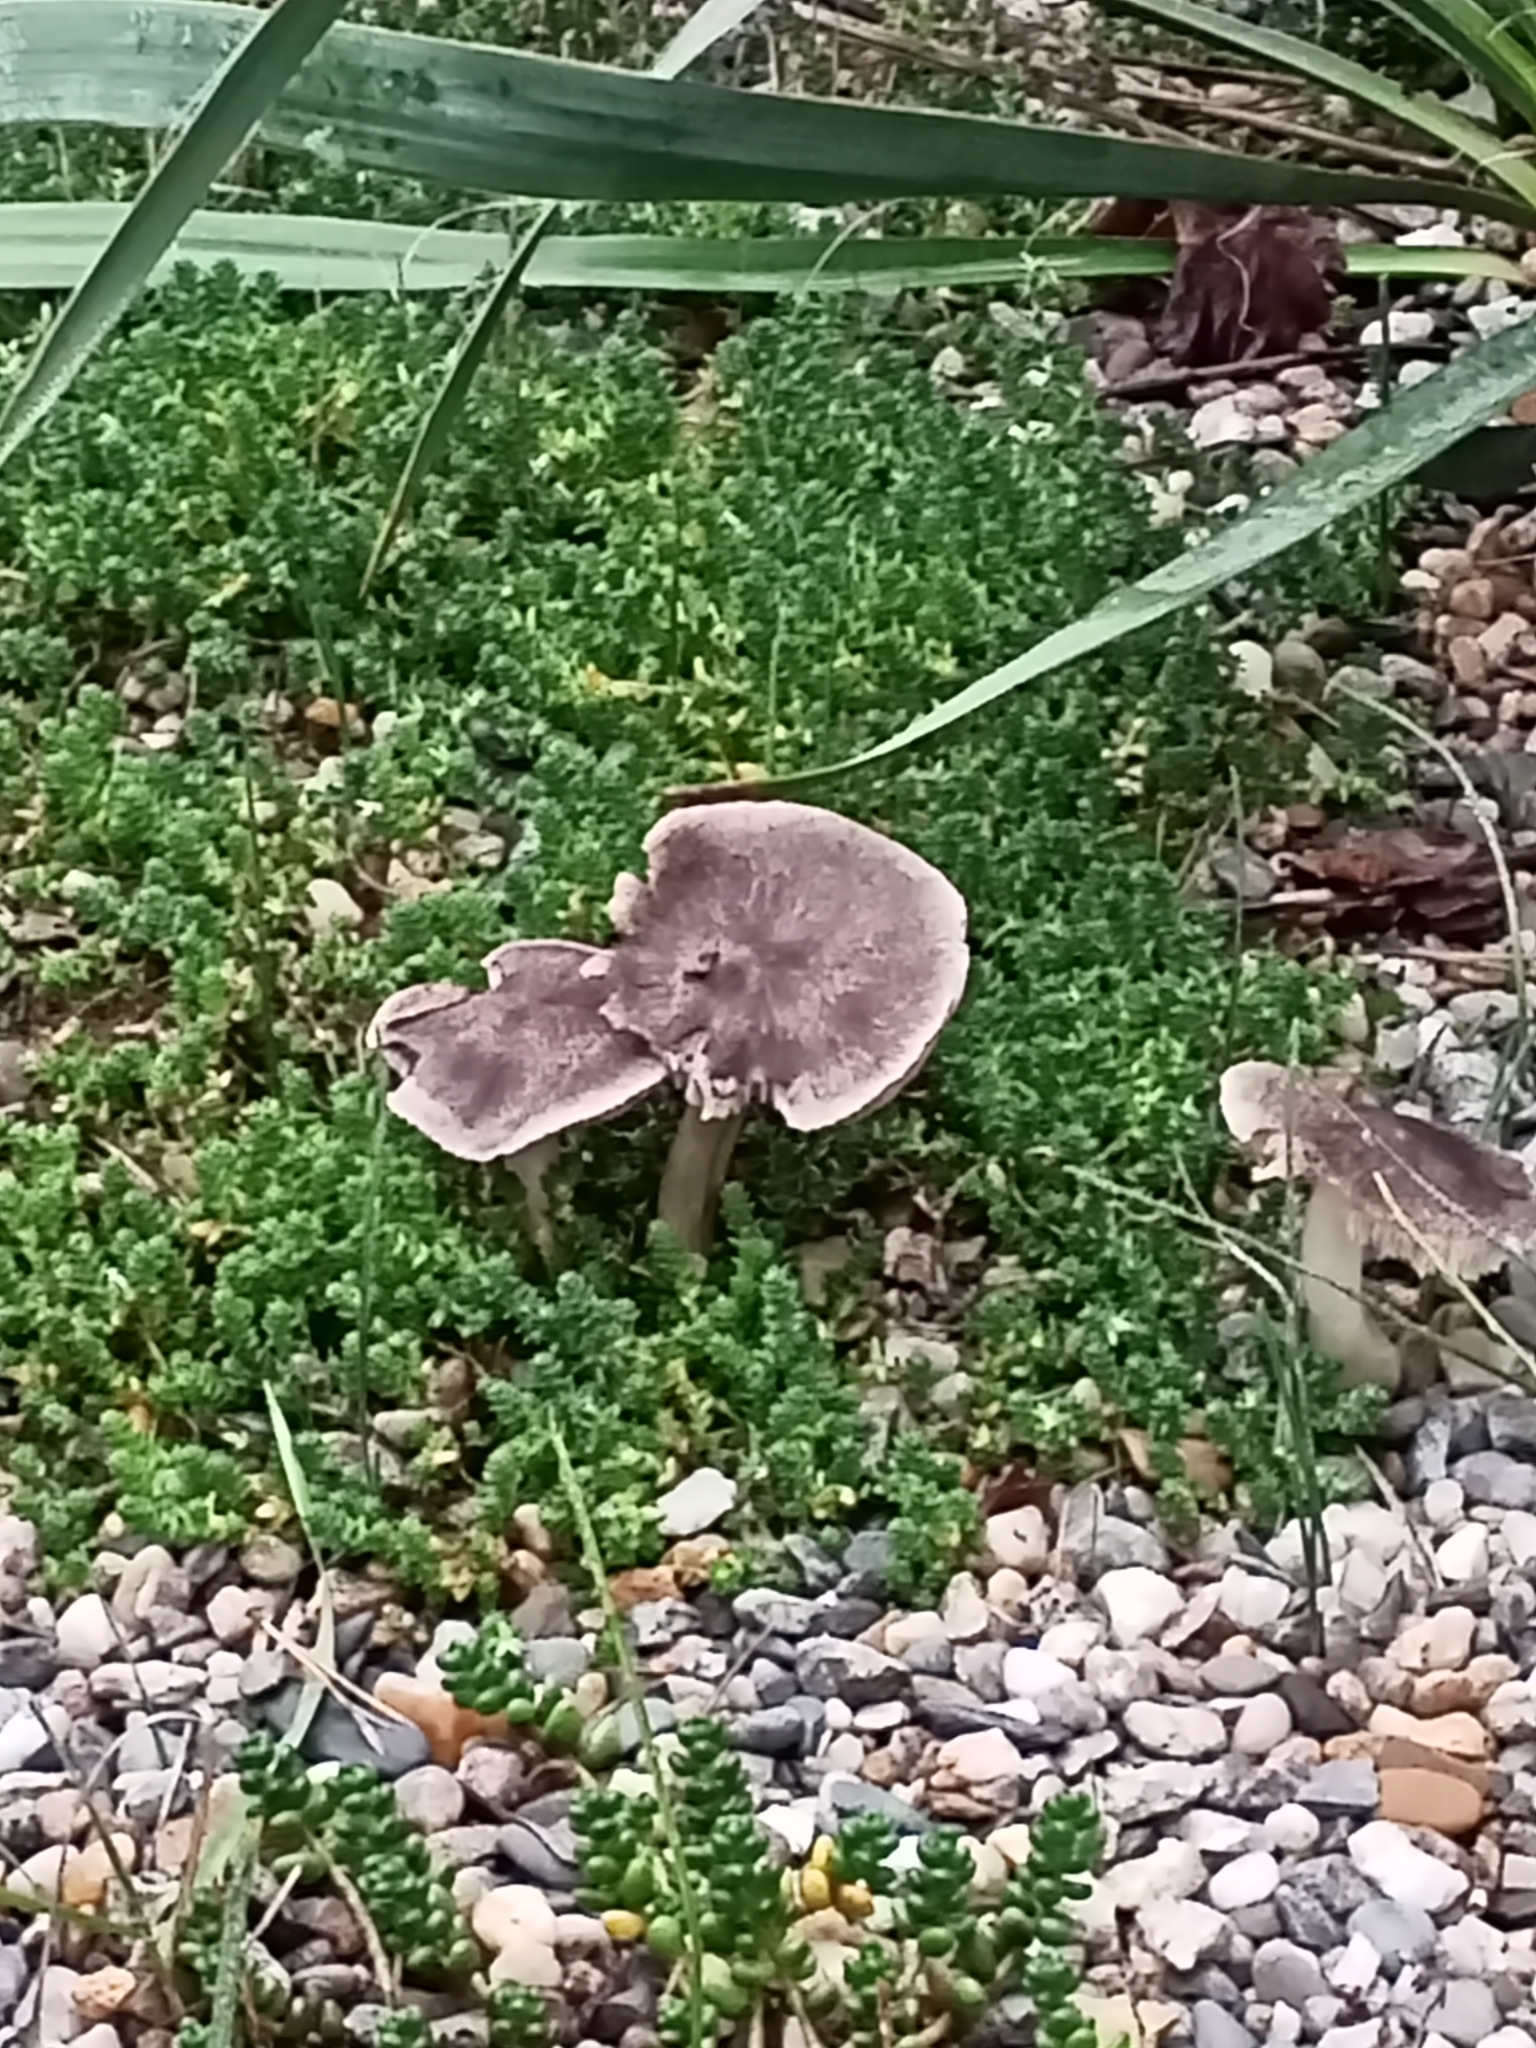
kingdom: Fungi
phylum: Basidiomycota
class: Agaricomycetes
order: Agaricales
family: Tricholomataceae
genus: Tricholoma
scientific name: Tricholoma terreum
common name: Grey knight
